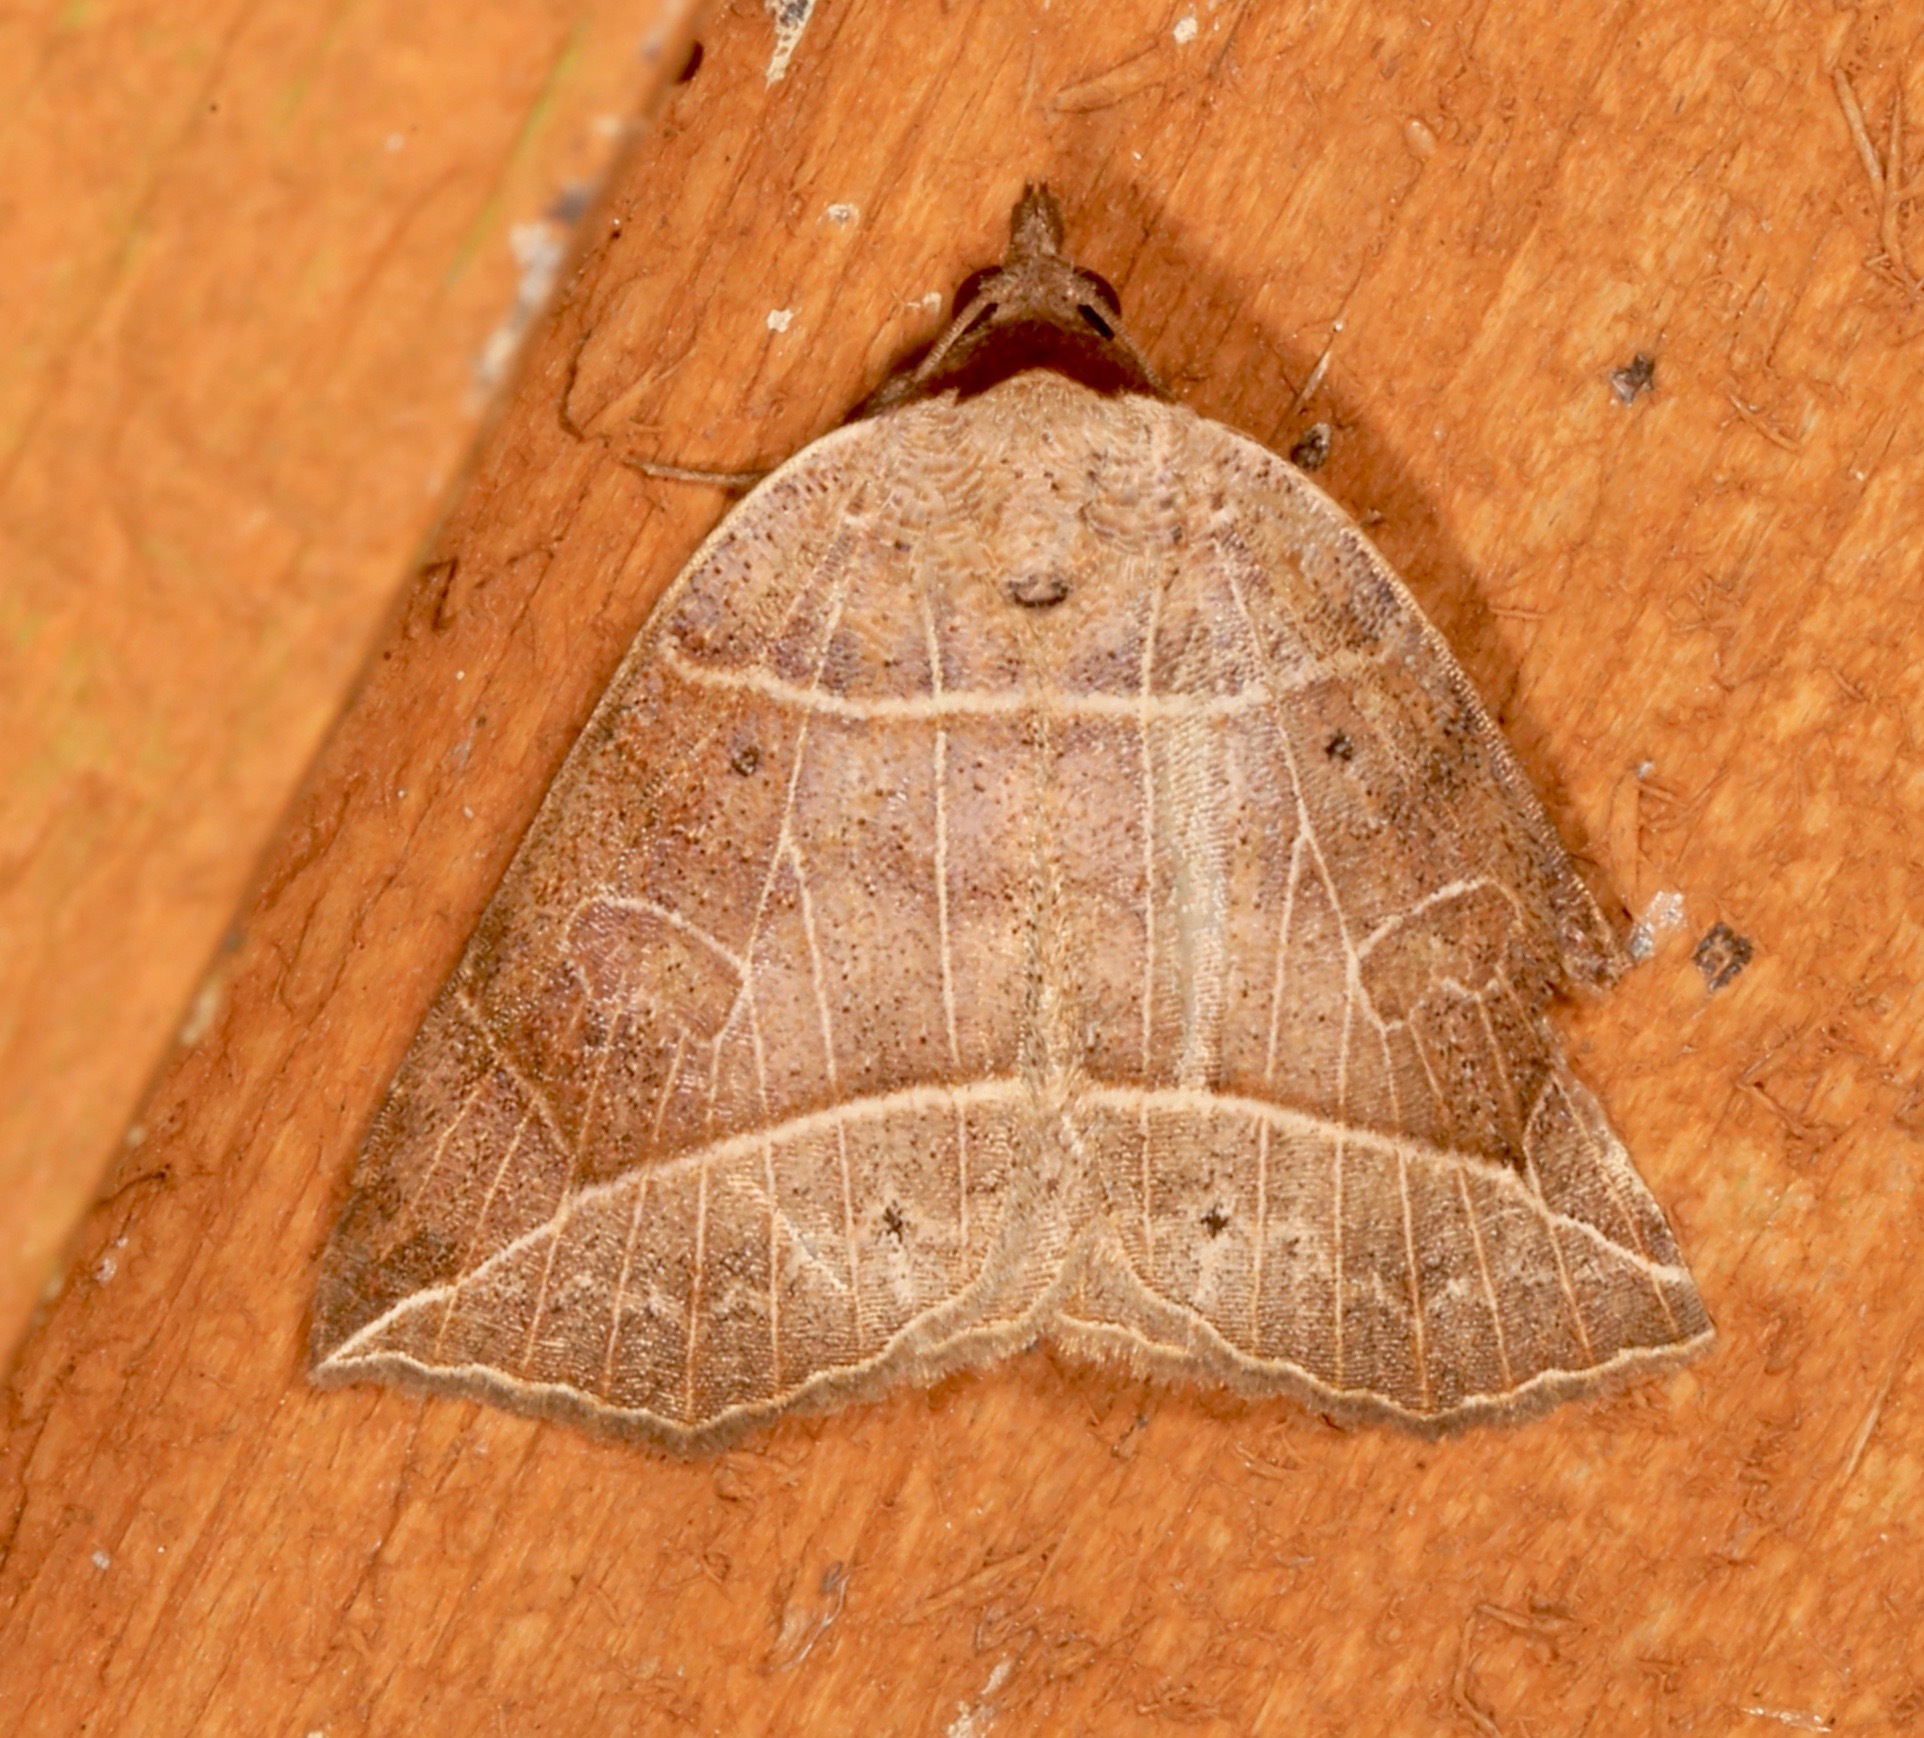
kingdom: Animalia
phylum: Arthropoda
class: Insecta
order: Lepidoptera
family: Erebidae
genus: Isogona
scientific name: Isogona tenuis
